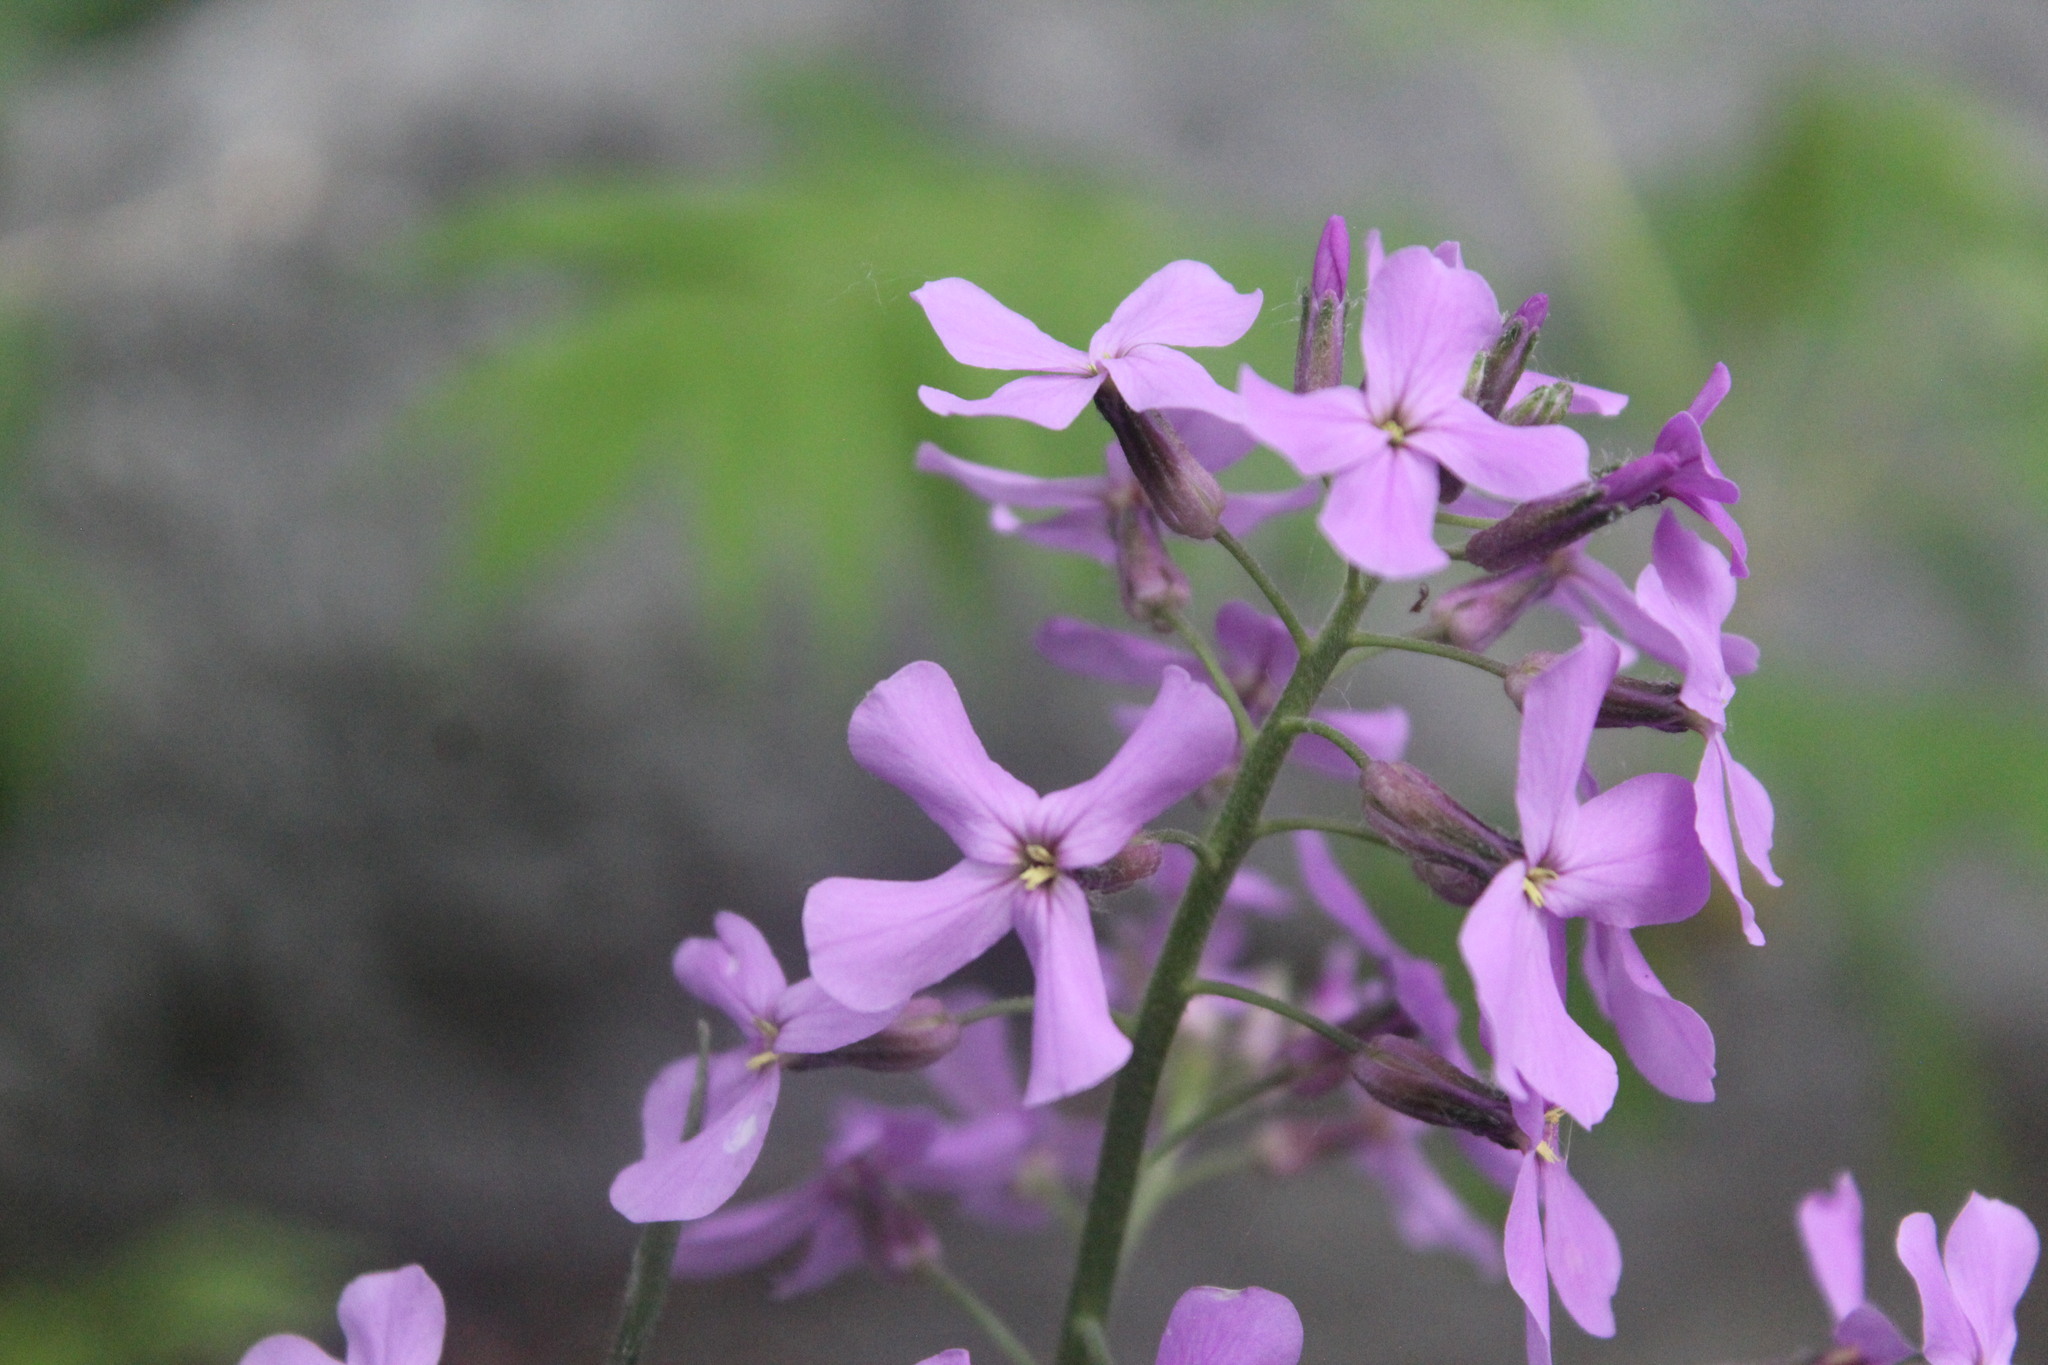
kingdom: Plantae
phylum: Tracheophyta
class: Magnoliopsida
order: Brassicales
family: Brassicaceae
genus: Hesperis
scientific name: Hesperis matronalis
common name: Dame's-violet
